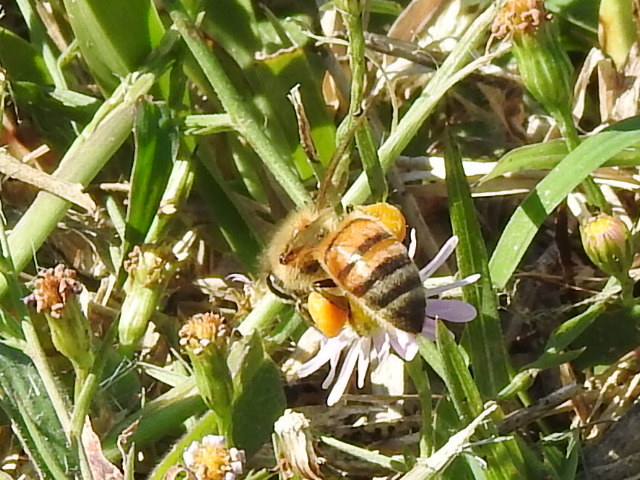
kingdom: Animalia
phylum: Arthropoda
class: Insecta
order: Hymenoptera
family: Apidae
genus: Apis
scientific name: Apis mellifera
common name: Honey bee
